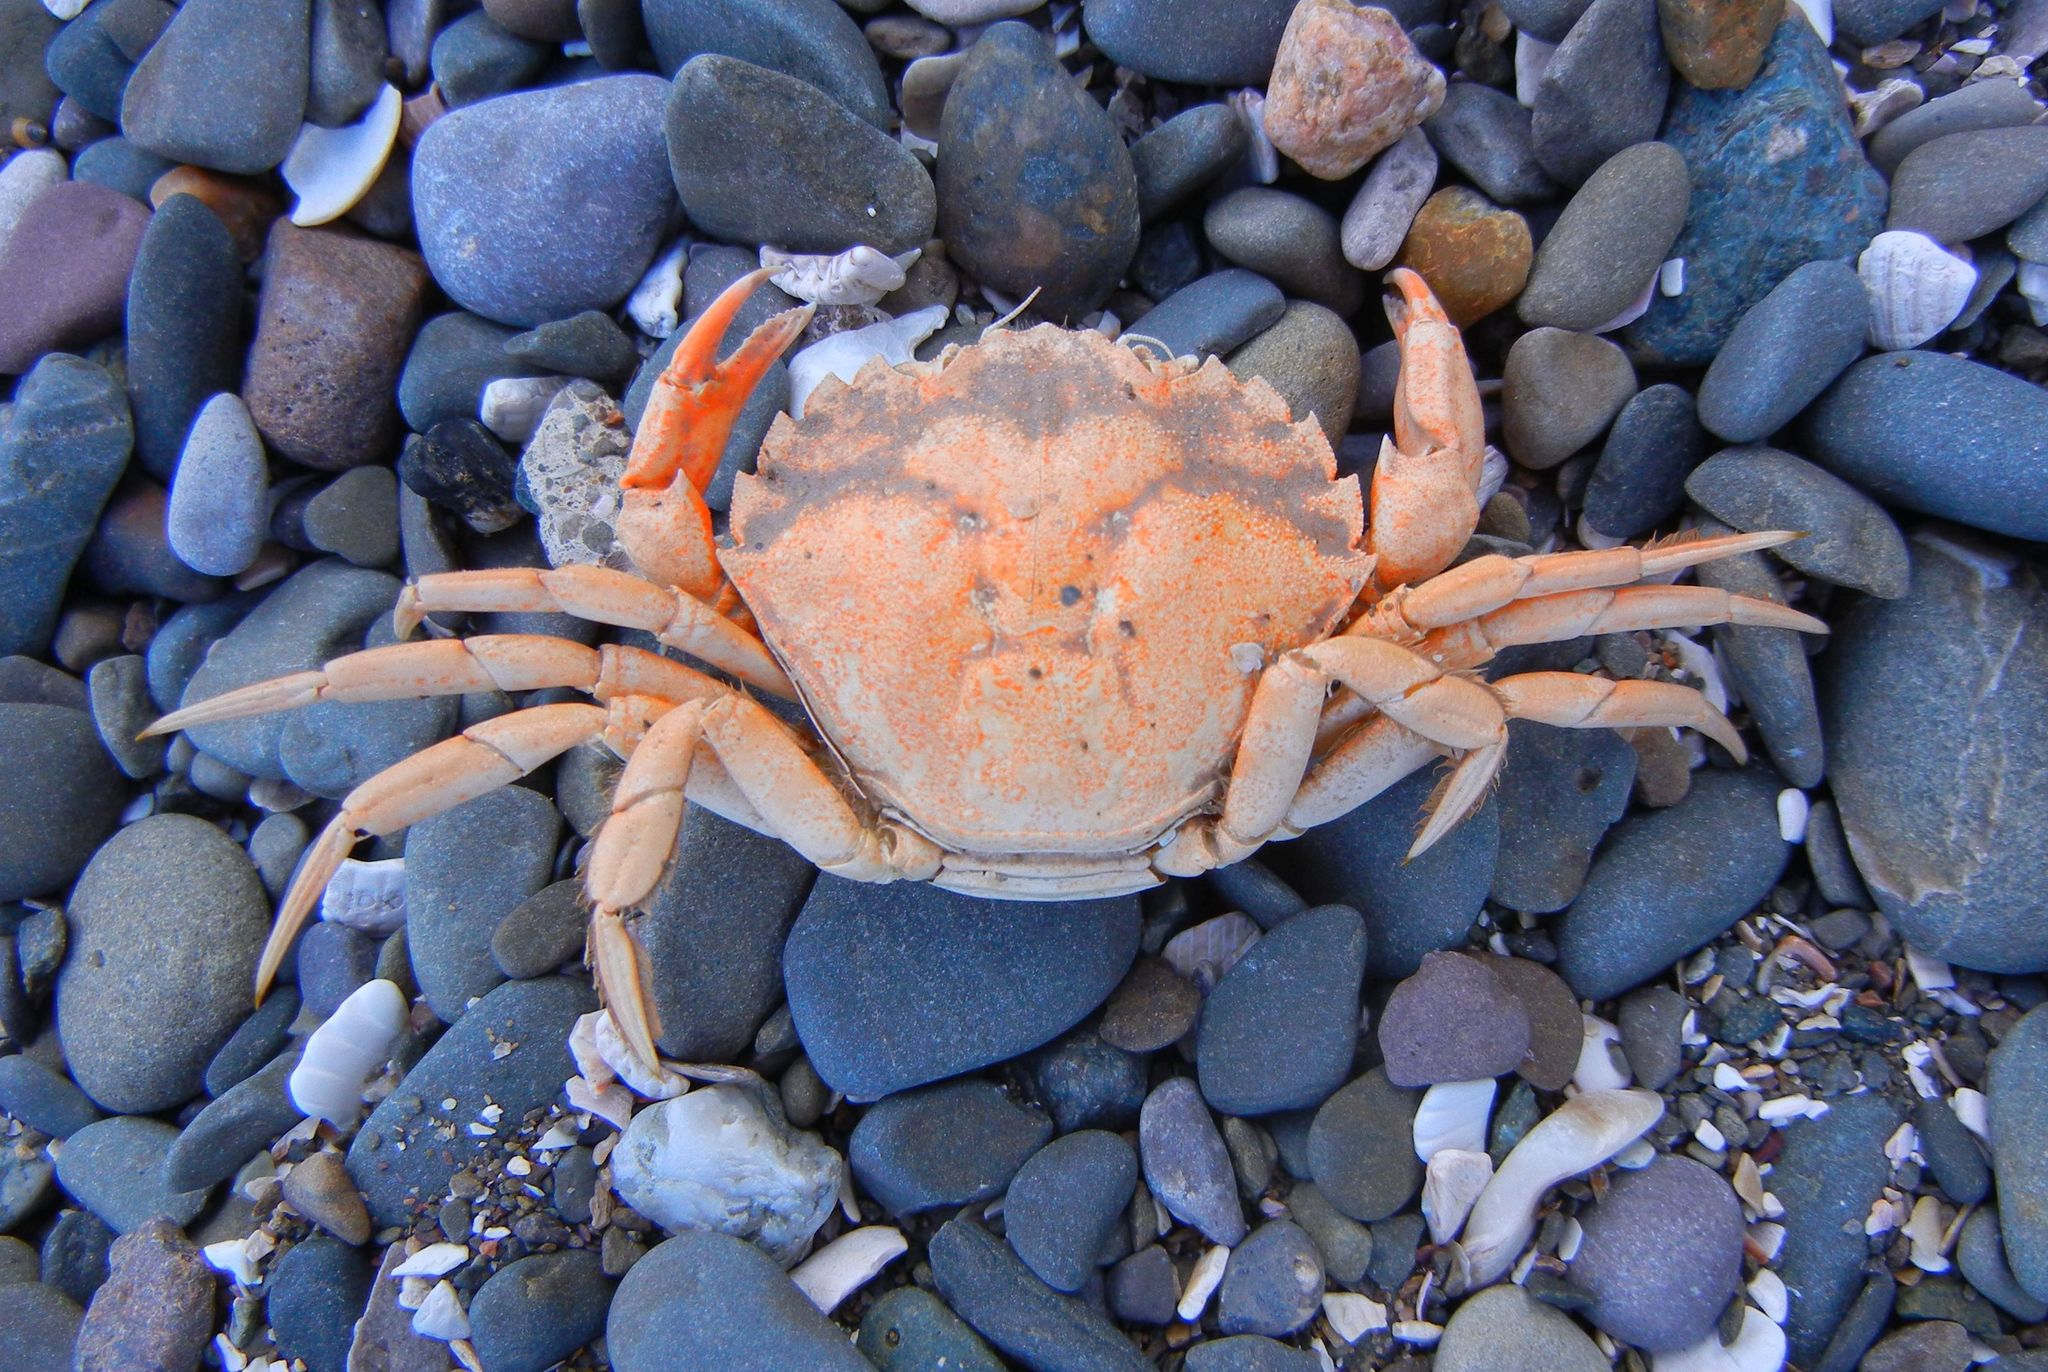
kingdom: Animalia
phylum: Arthropoda
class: Malacostraca
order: Decapoda
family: Carcinidae
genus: Carcinus
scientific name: Carcinus maenas
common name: European green crab
